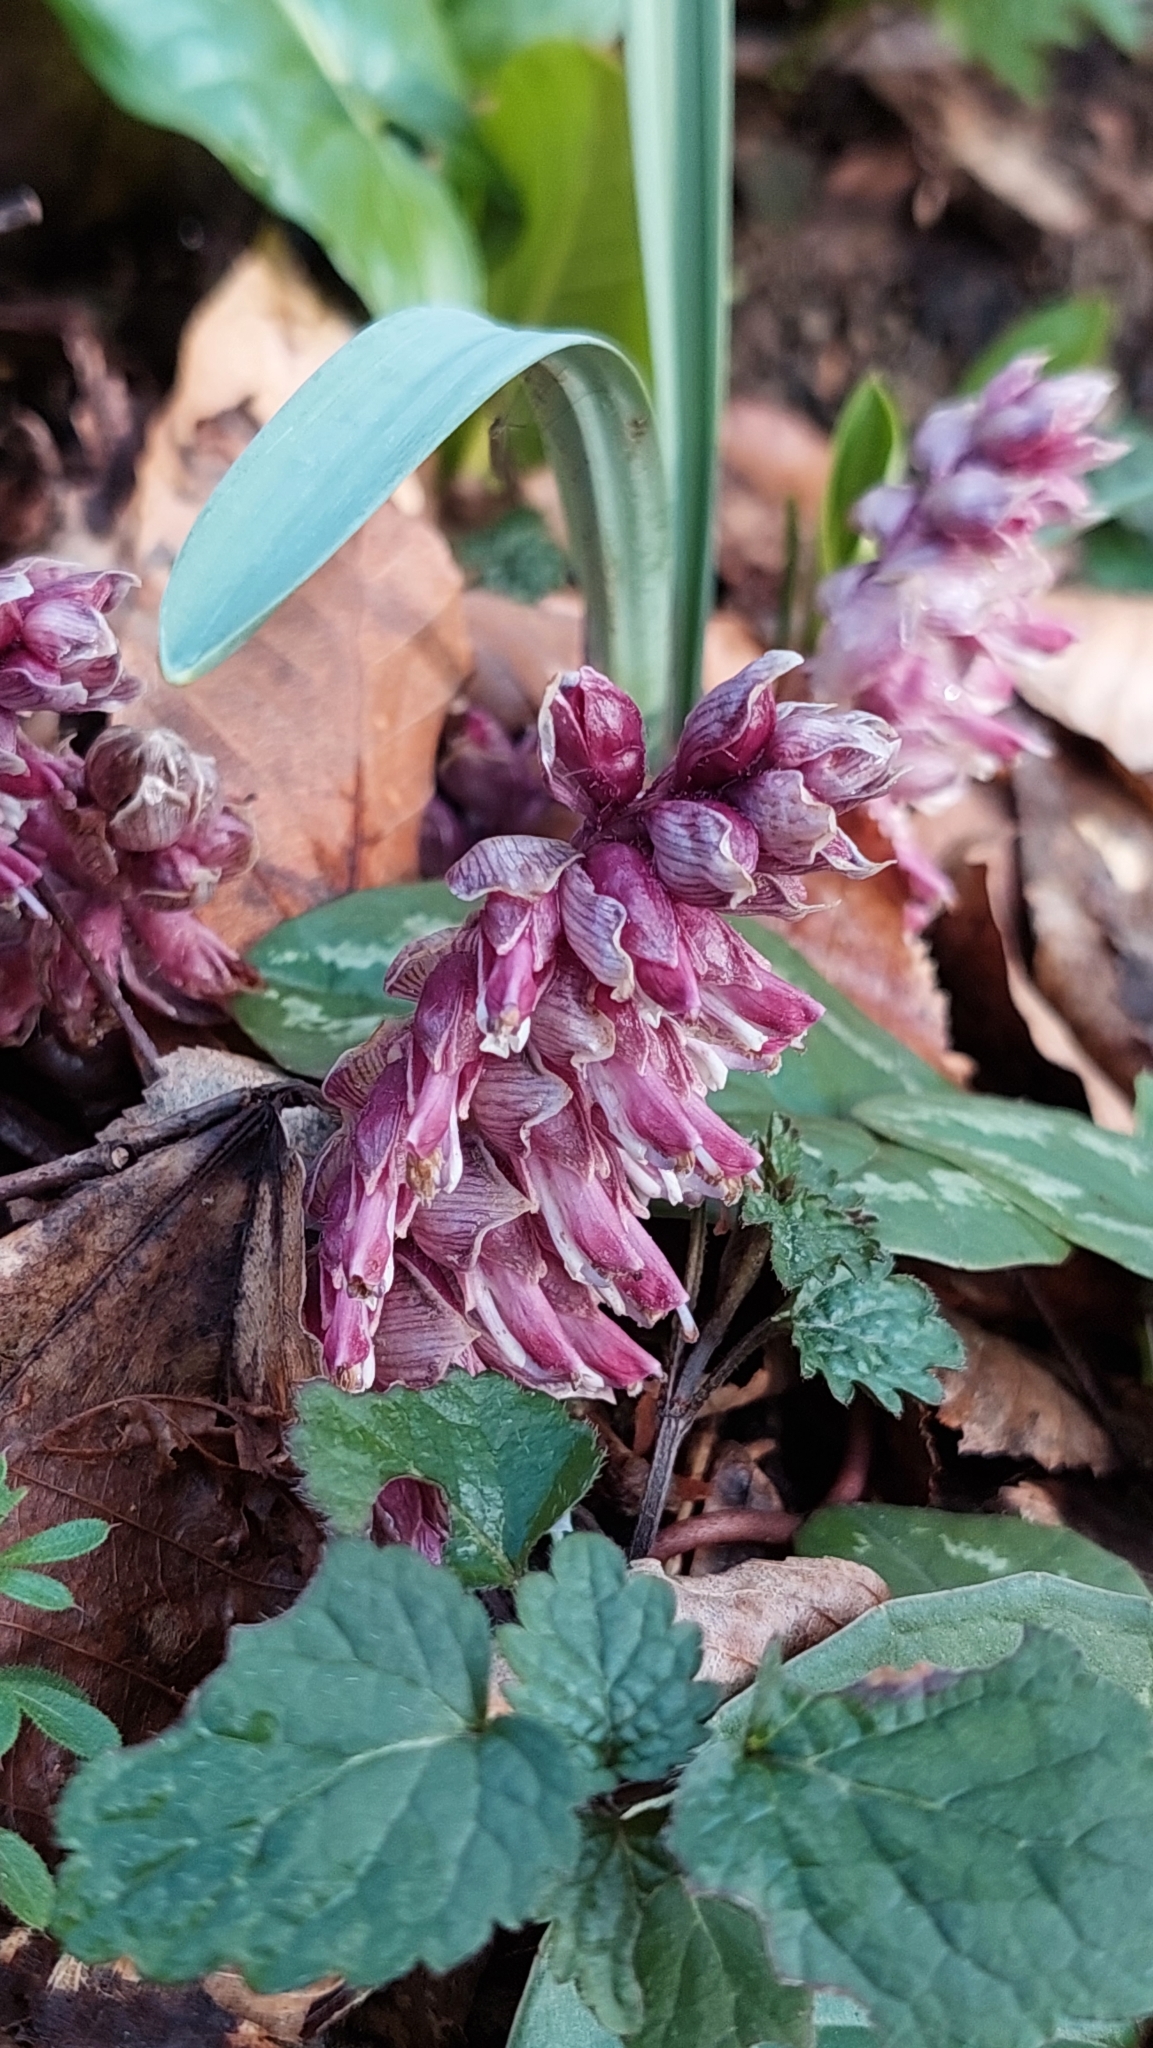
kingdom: Plantae
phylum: Tracheophyta
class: Magnoliopsida
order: Lamiales
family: Orobanchaceae
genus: Lathraea
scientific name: Lathraea squamaria
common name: Toothwort
